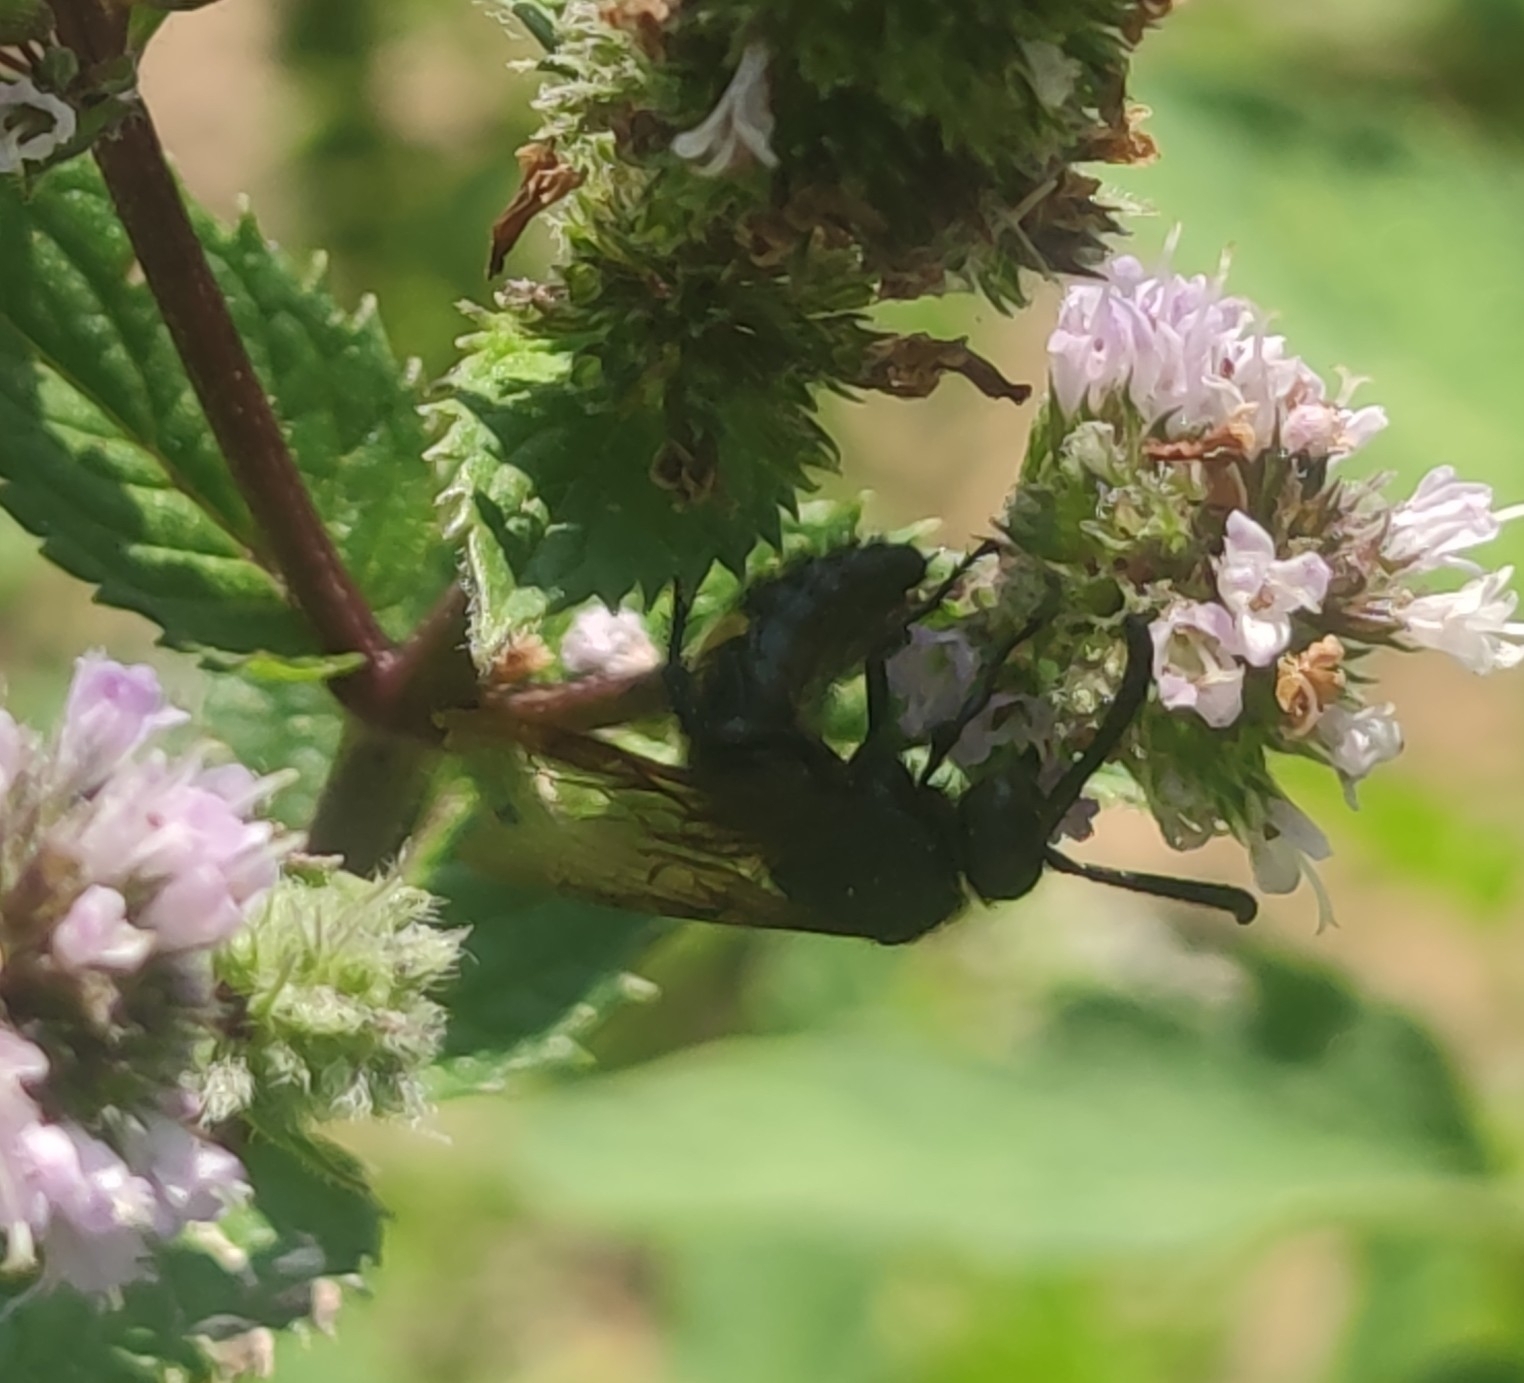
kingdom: Animalia
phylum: Arthropoda
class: Insecta
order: Hymenoptera
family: Scoliidae
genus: Scolia
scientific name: Scolia hirta
